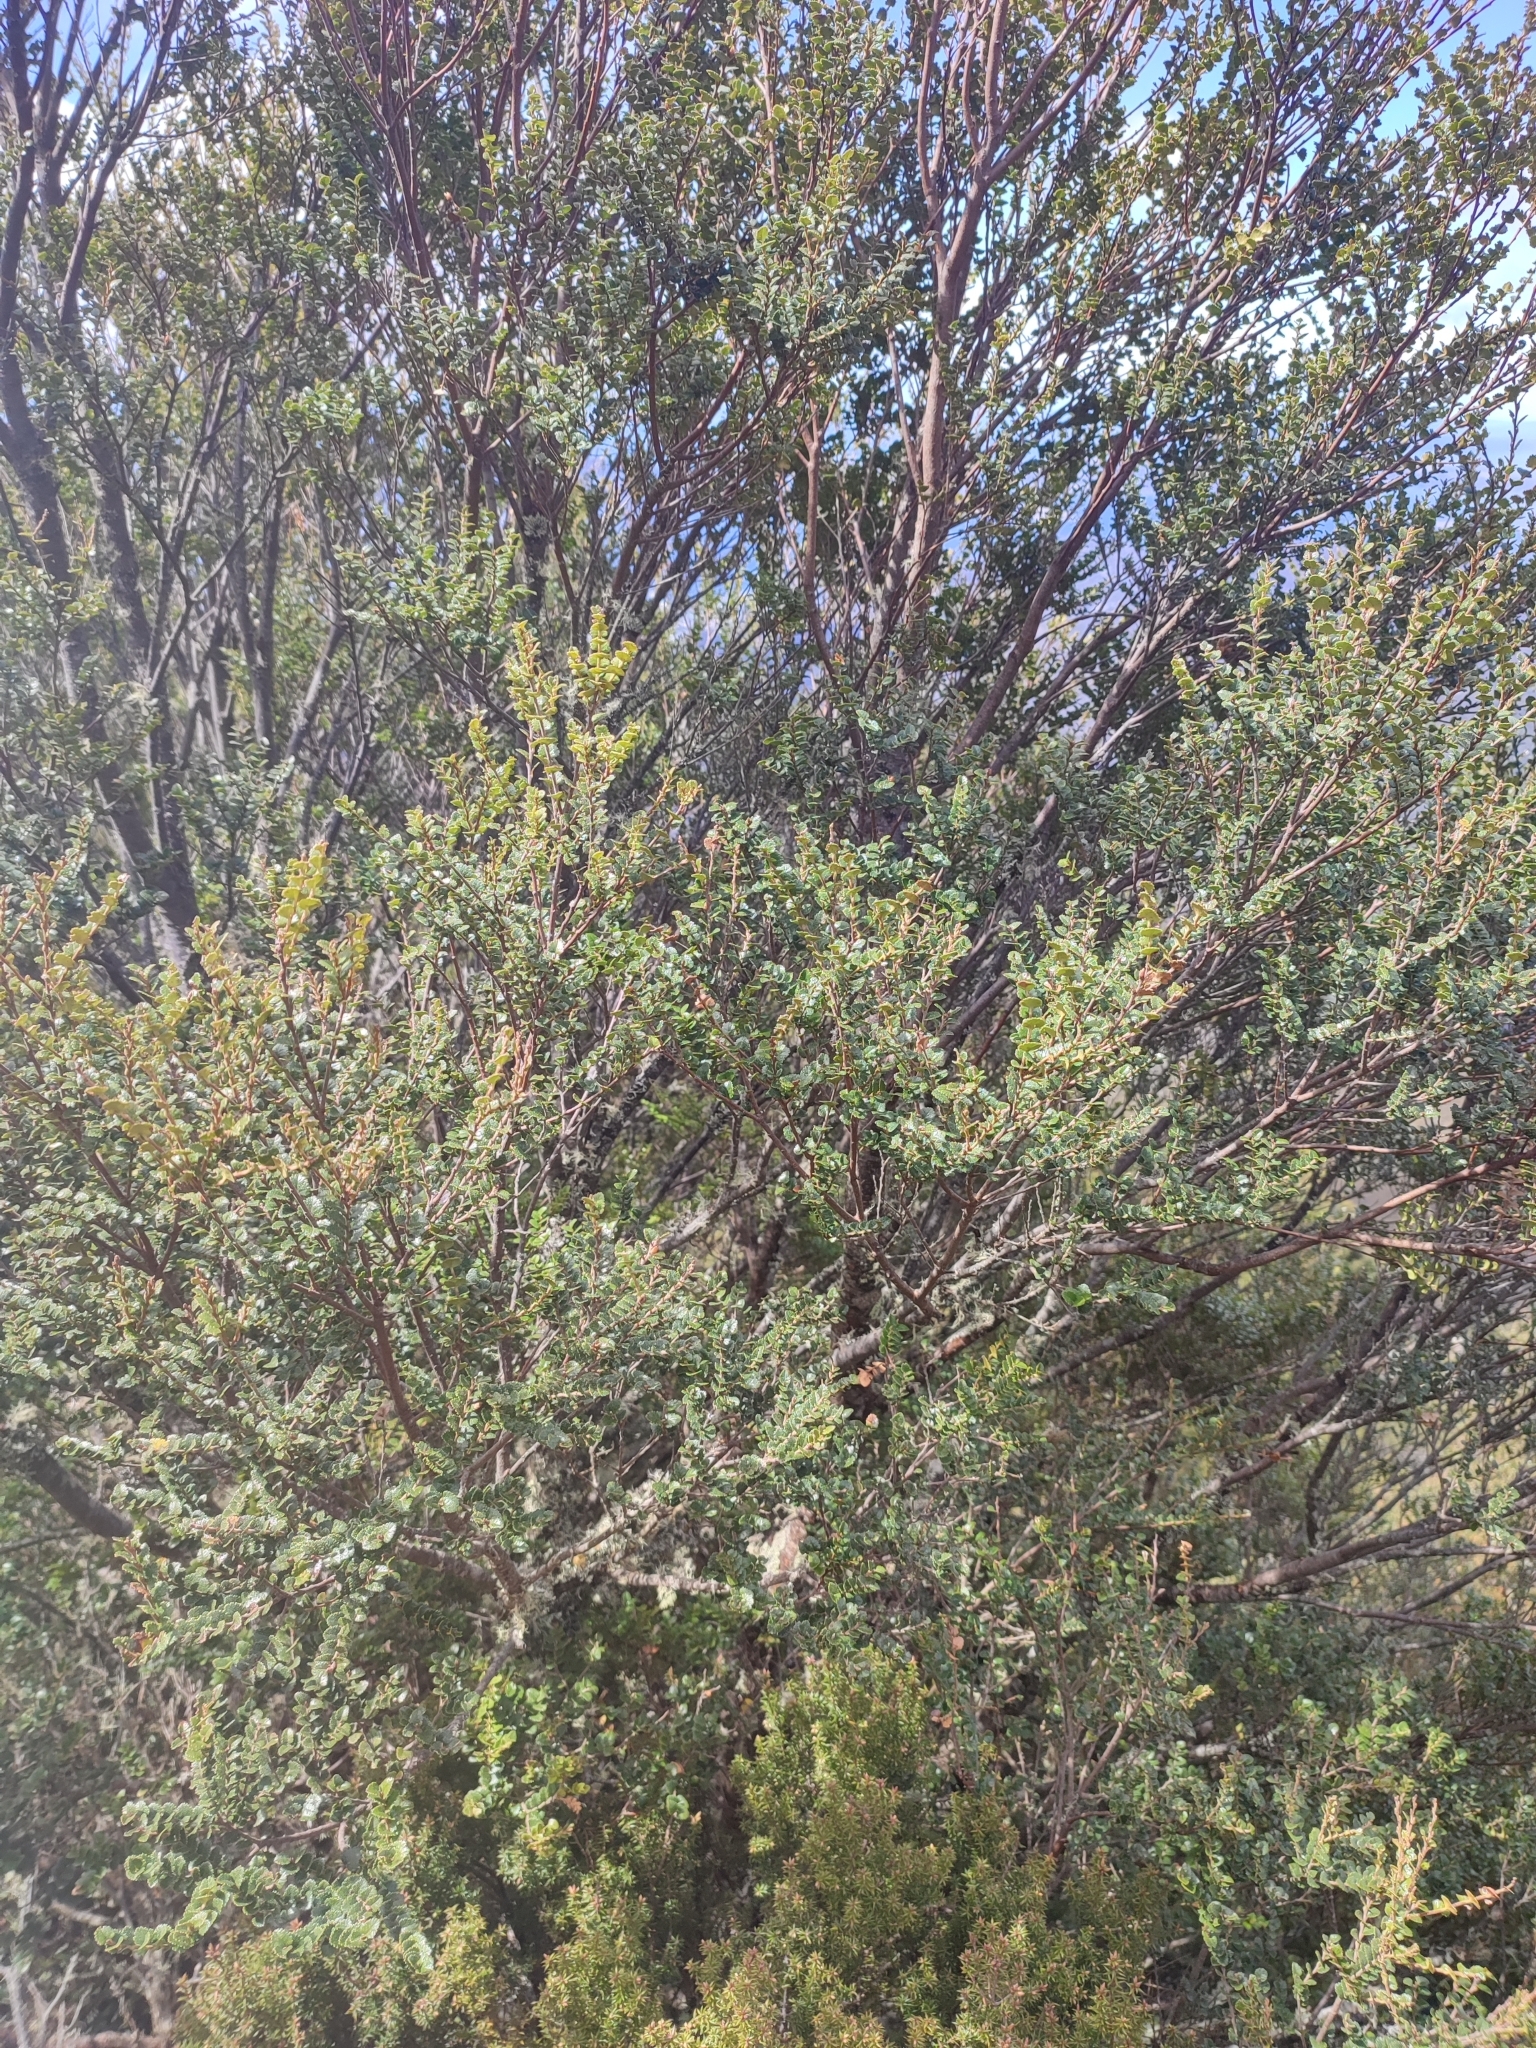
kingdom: Plantae
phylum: Tracheophyta
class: Magnoliopsida
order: Fagales
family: Nothofagaceae
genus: Nothofagus
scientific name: Nothofagus cunninghamii
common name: Myrtle beech
